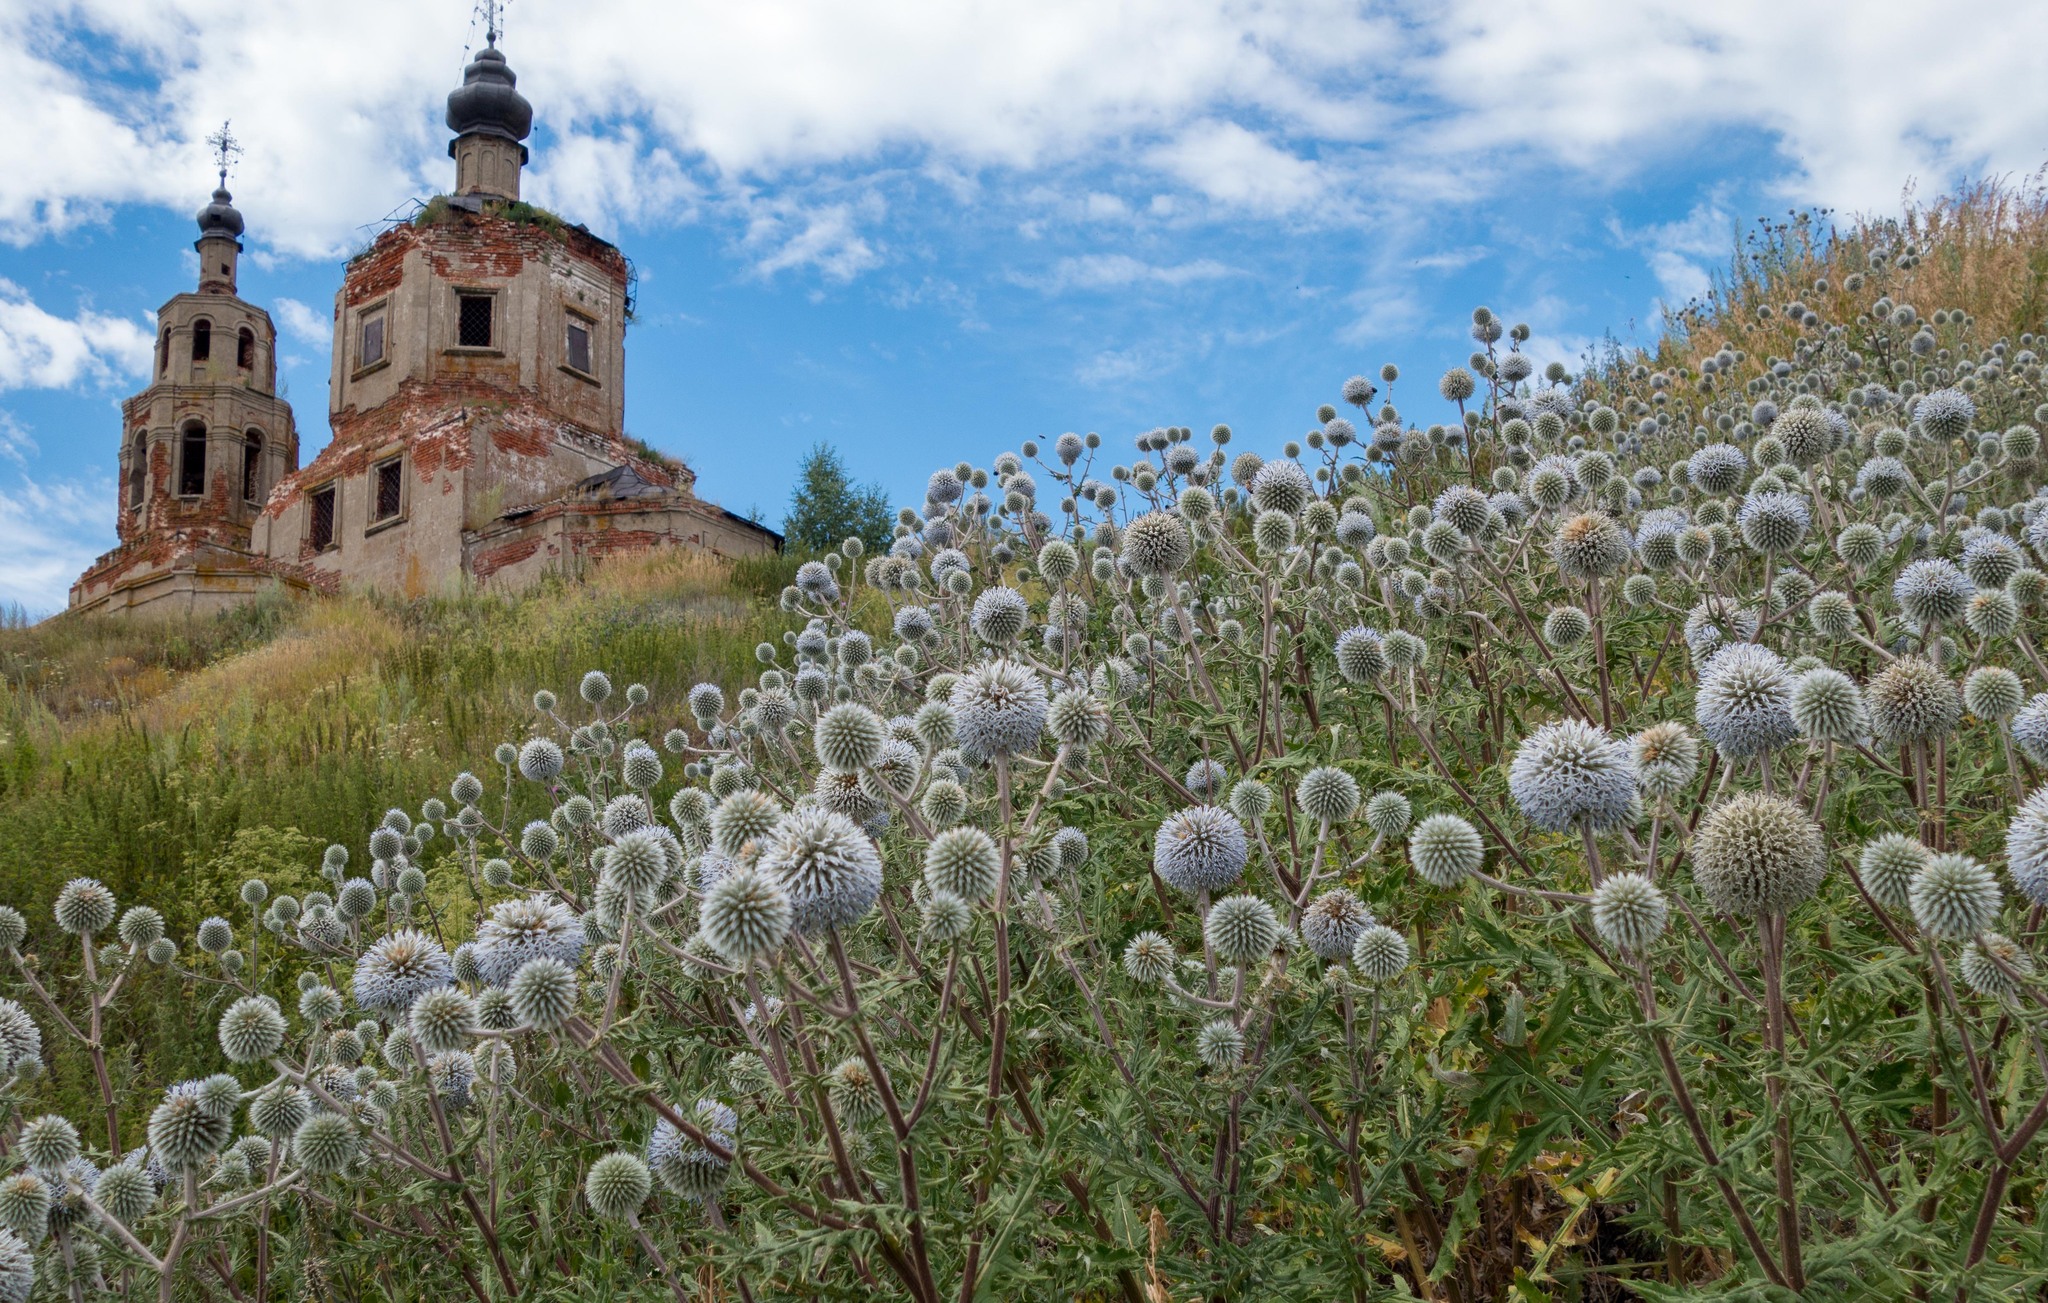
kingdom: Plantae
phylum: Tracheophyta
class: Magnoliopsida
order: Asterales
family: Asteraceae
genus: Echinops
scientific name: Echinops sphaerocephalus
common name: Glandular globe-thistle
